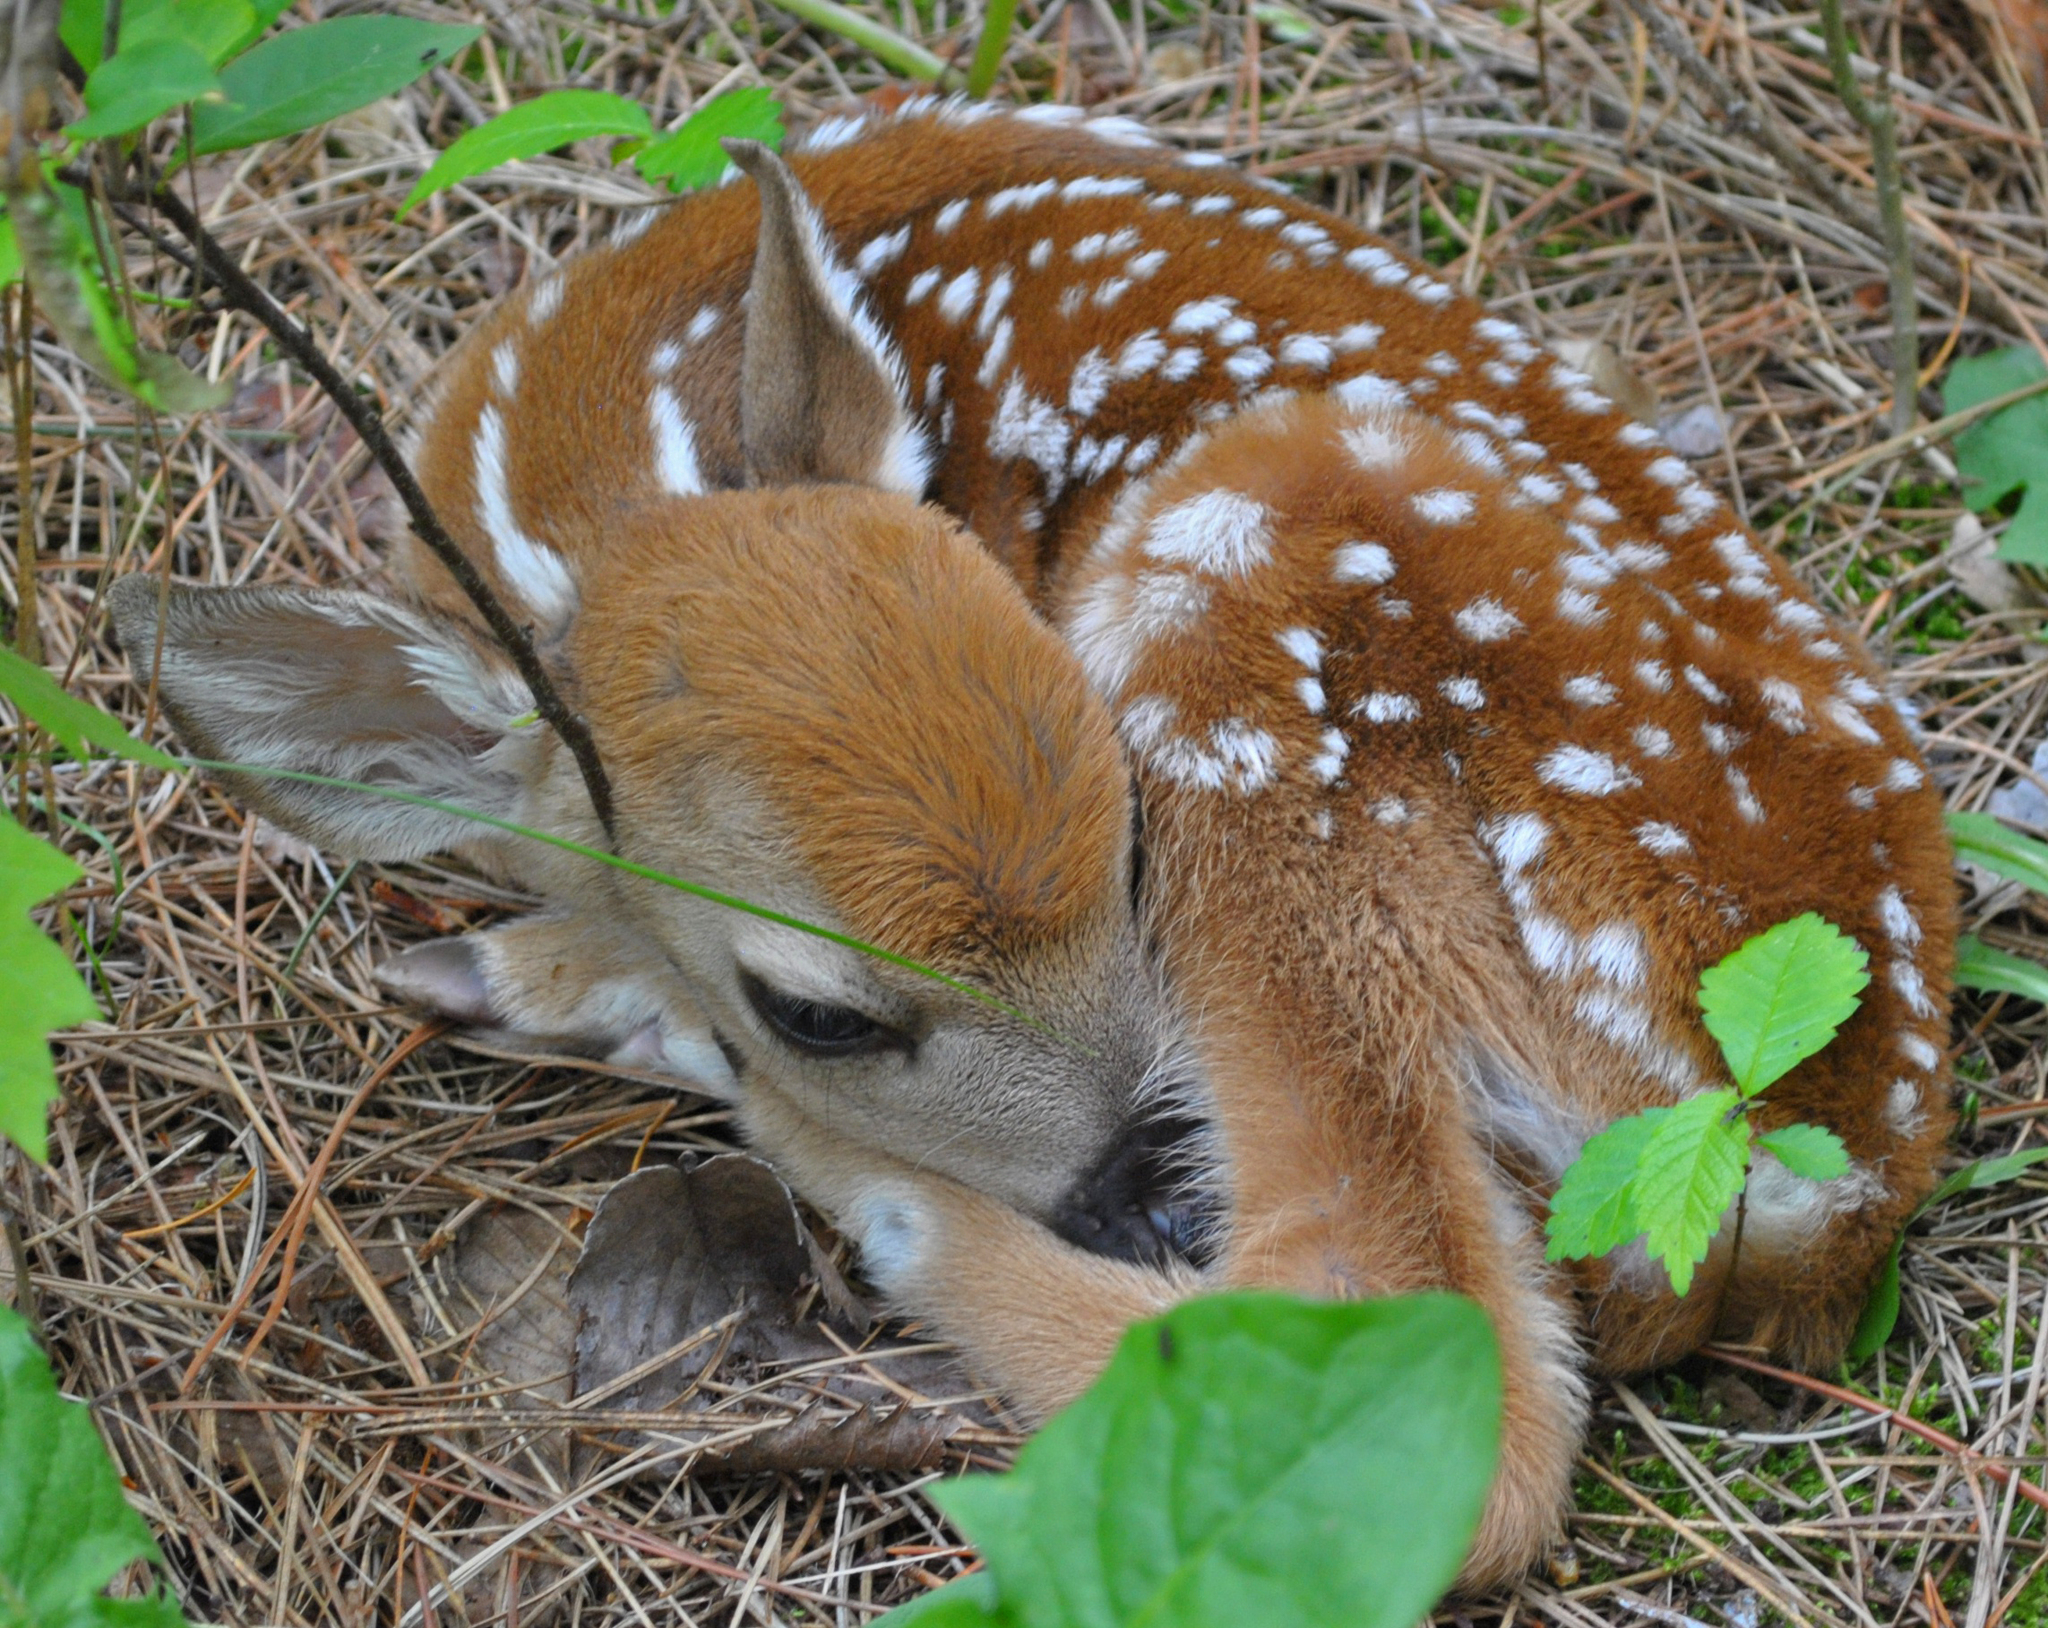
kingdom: Animalia
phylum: Chordata
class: Mammalia
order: Artiodactyla
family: Cervidae
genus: Odocoileus
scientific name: Odocoileus virginianus
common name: White-tailed deer
